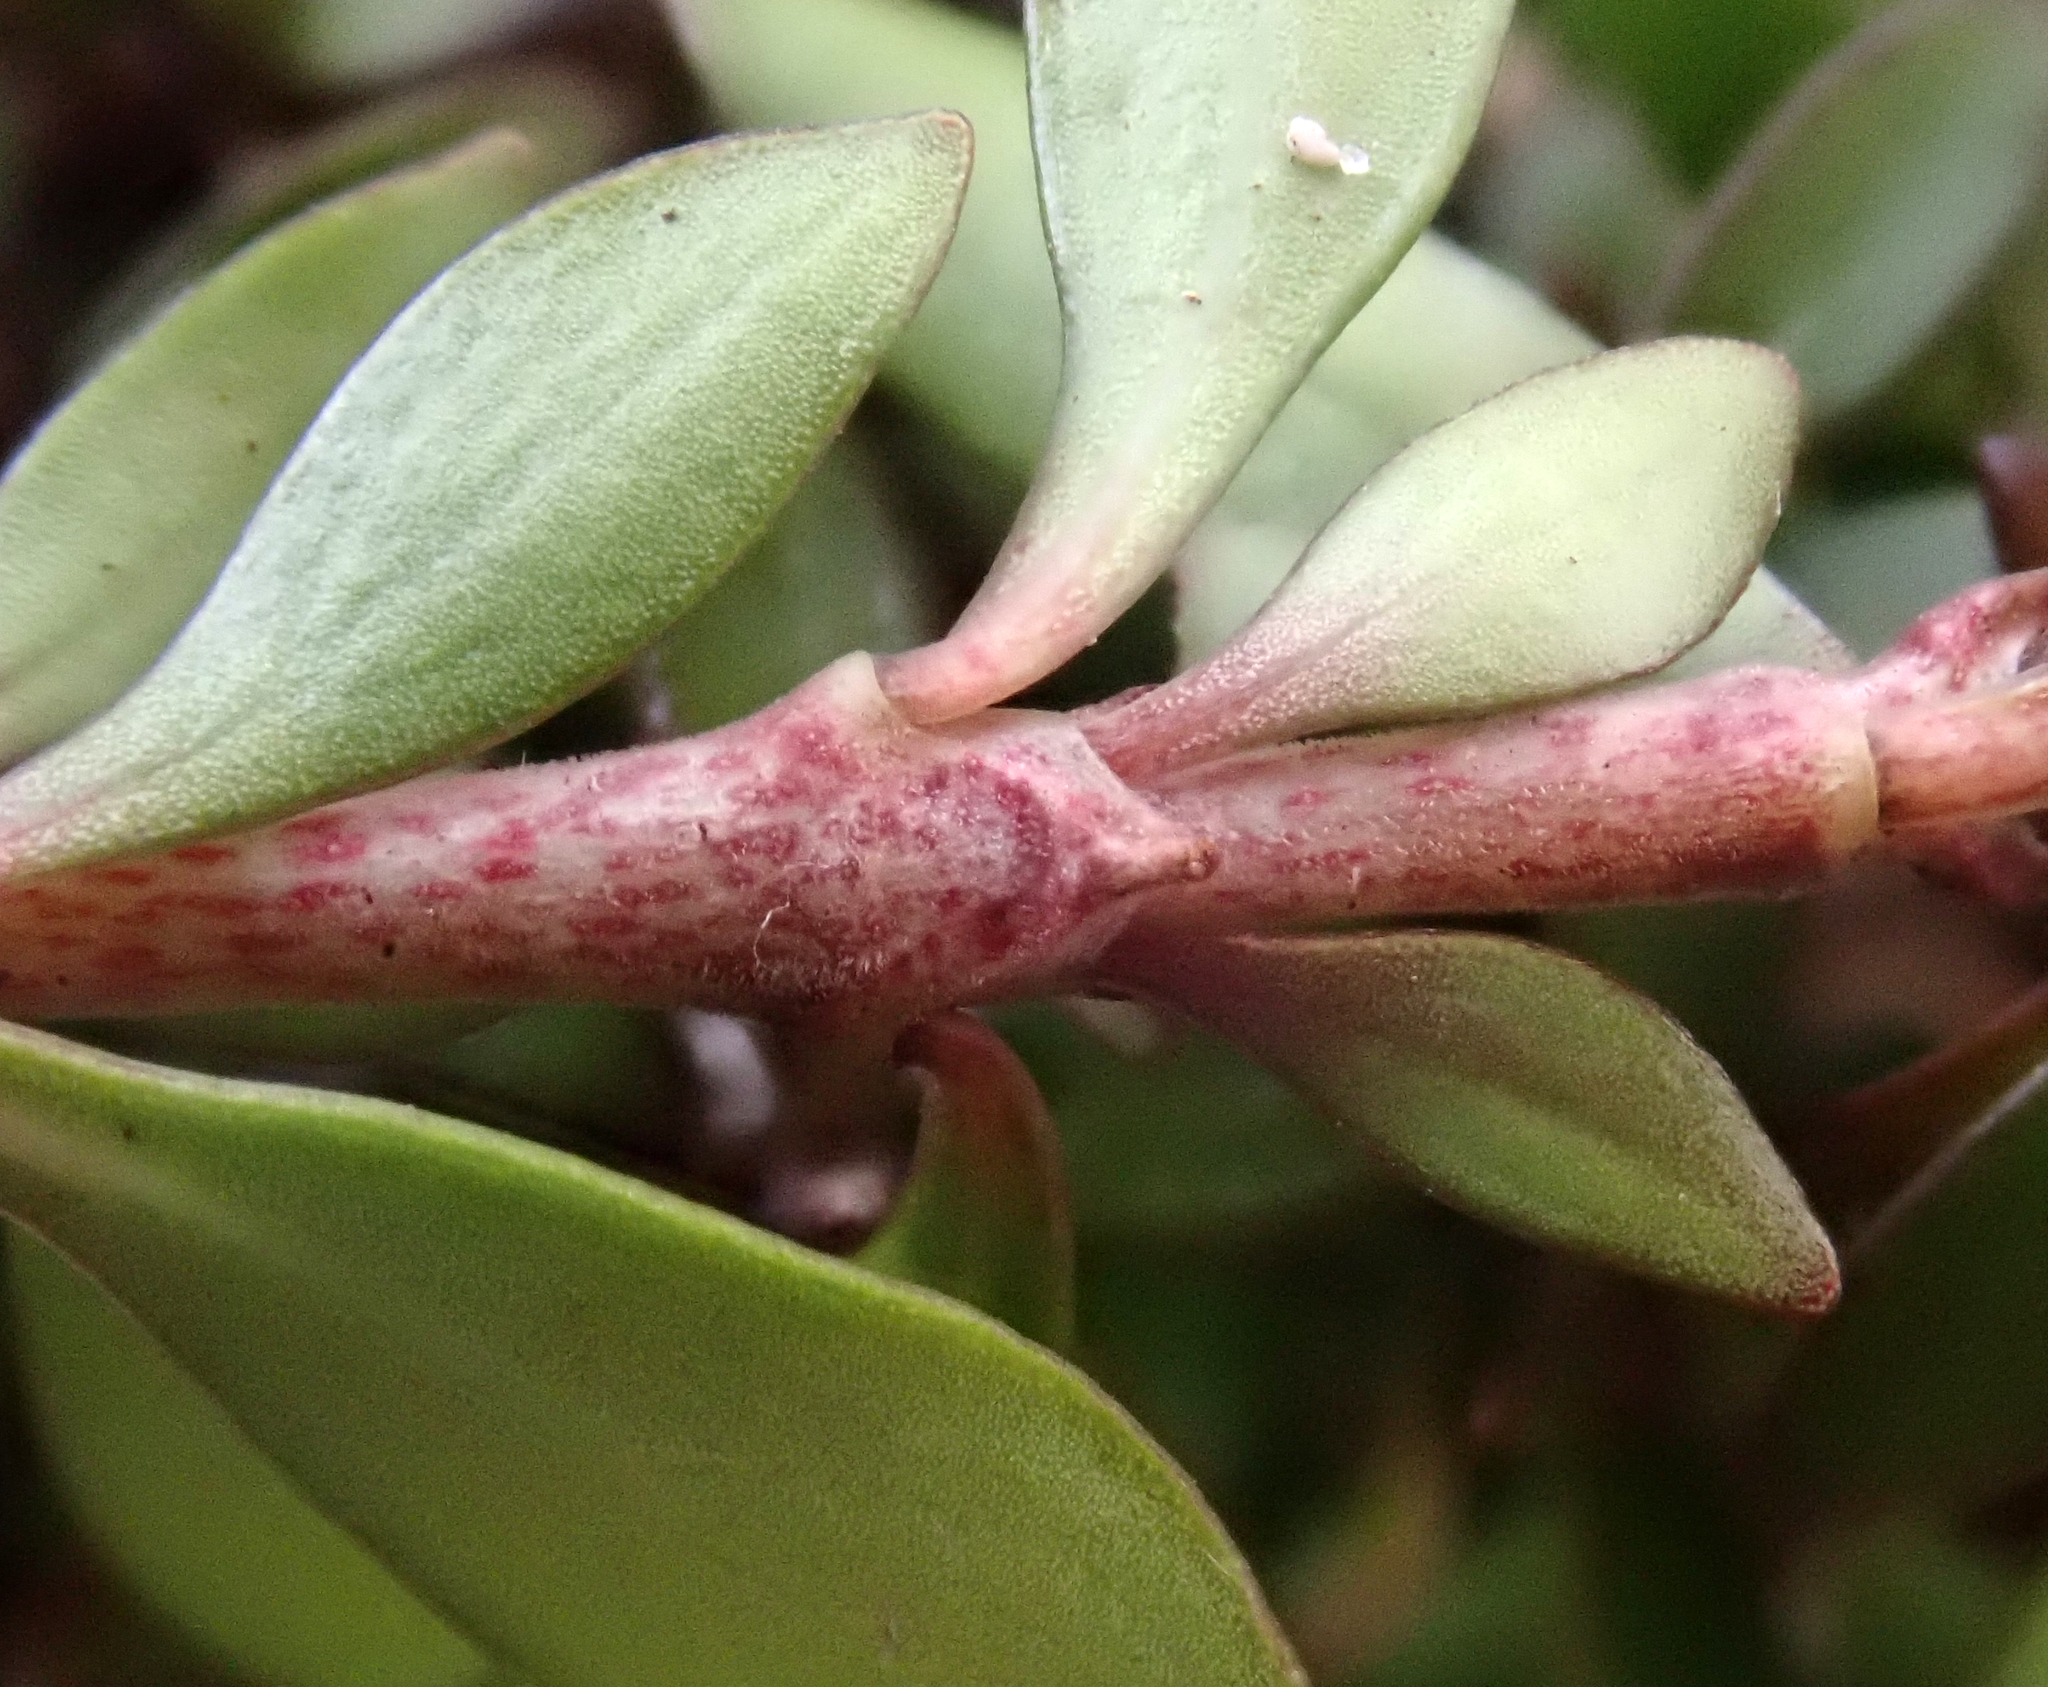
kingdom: Plantae
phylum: Tracheophyta
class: Magnoliopsida
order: Gentianales
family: Rubiaceae
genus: Coprosma
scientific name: Coprosma propinqua
